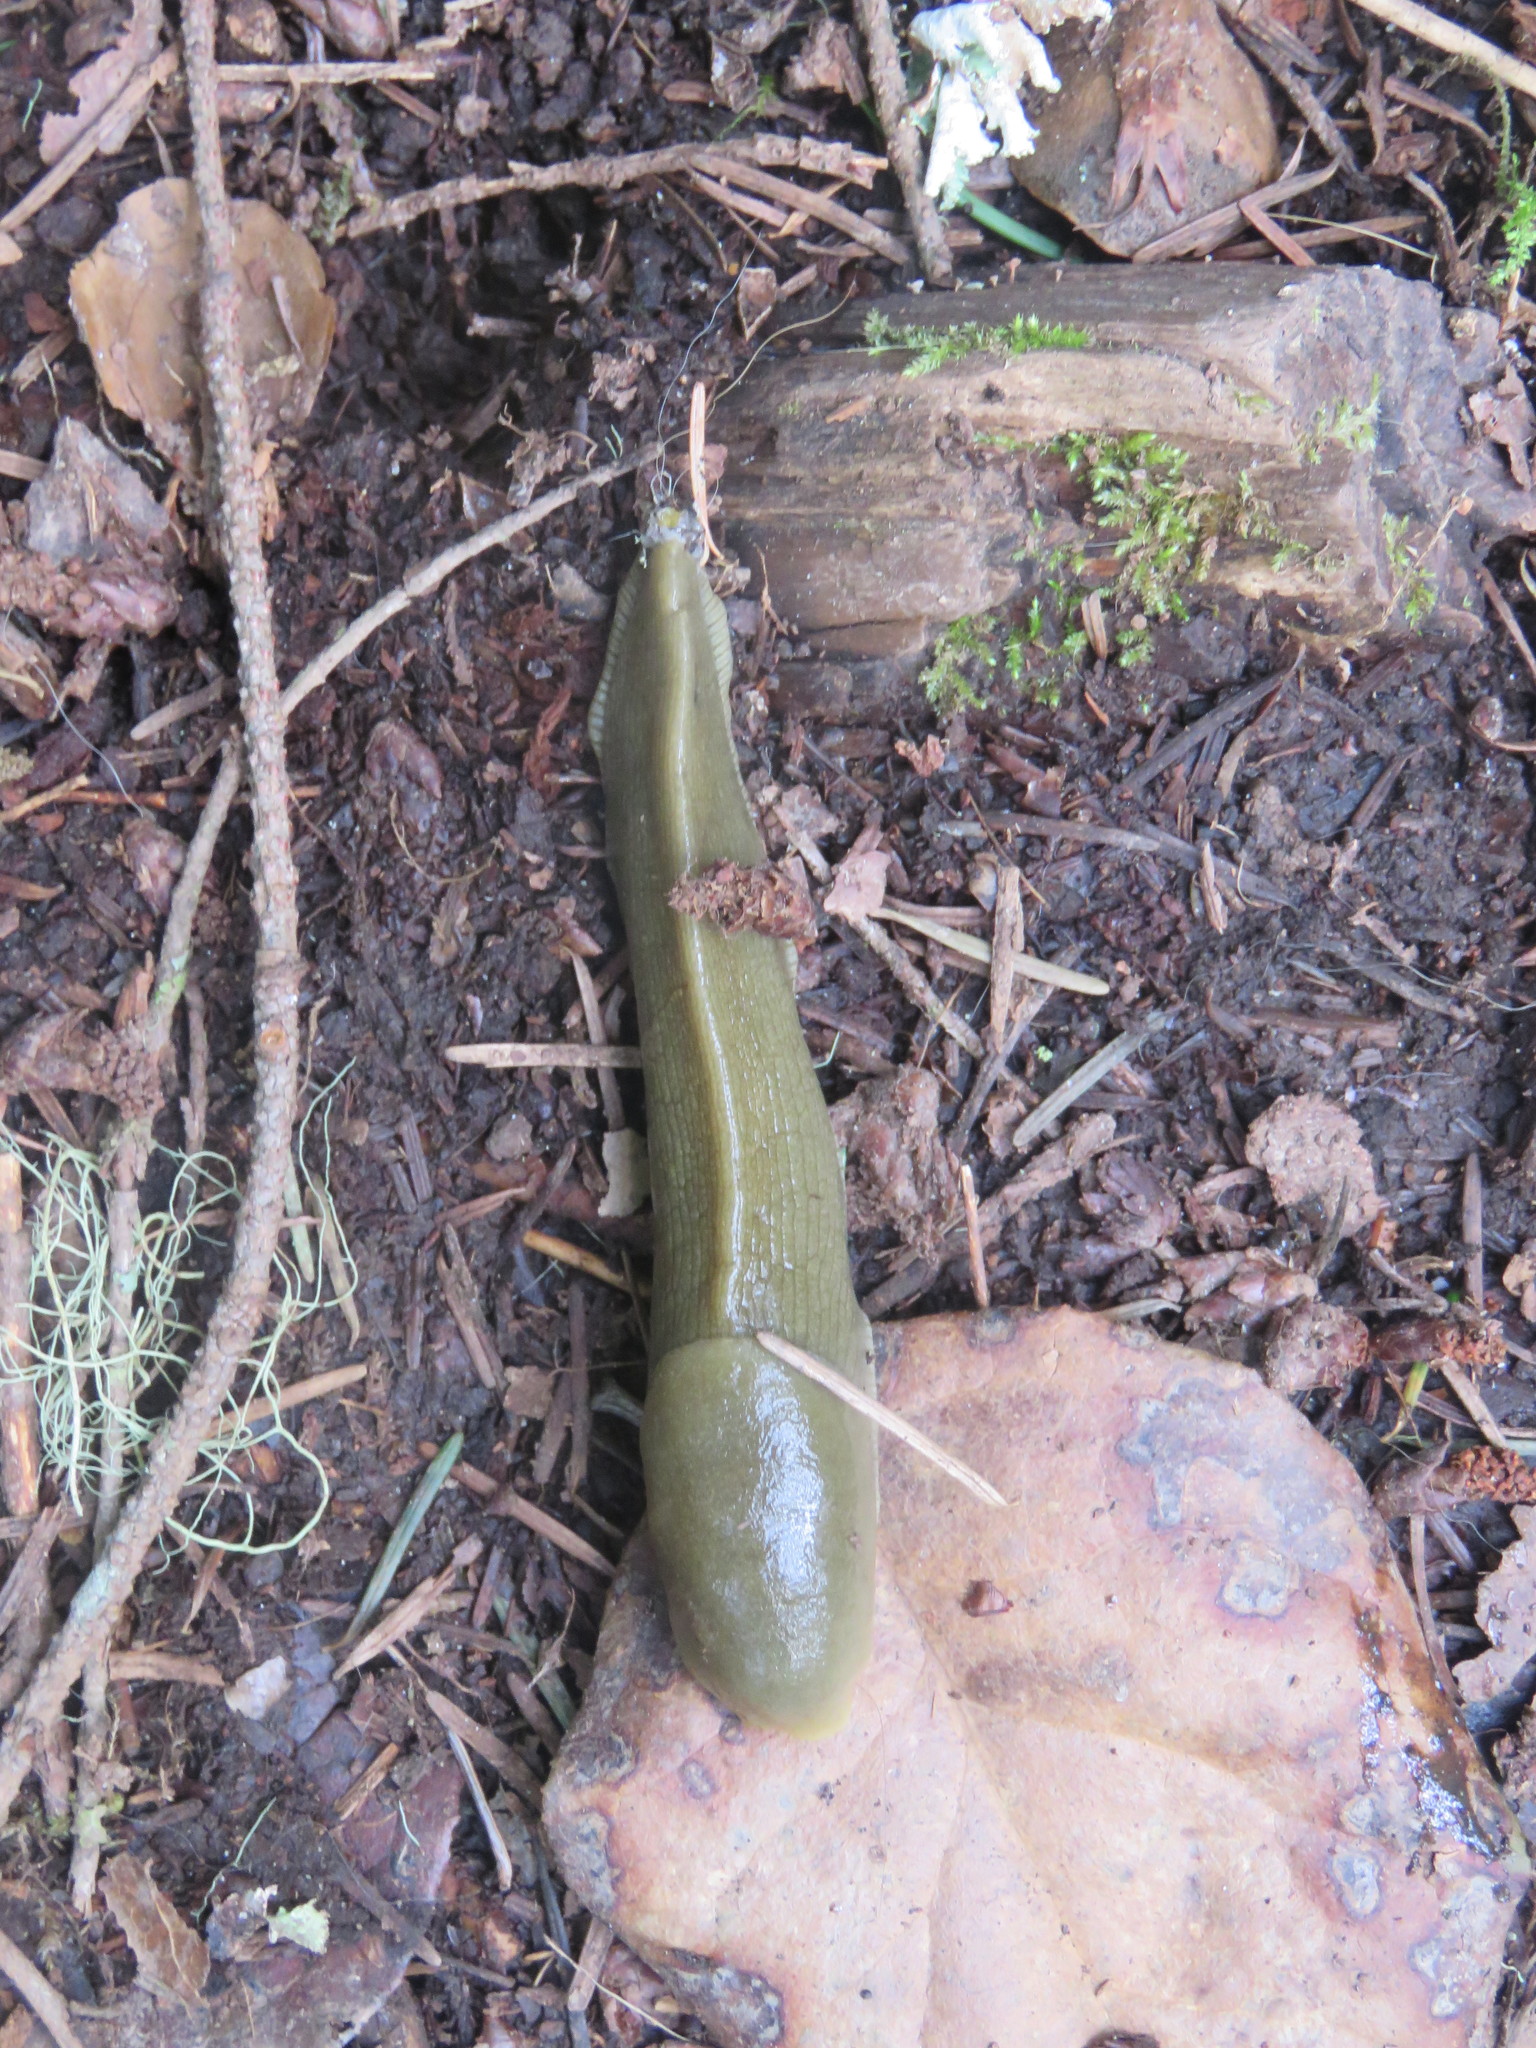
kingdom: Animalia
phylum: Mollusca
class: Gastropoda
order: Stylommatophora
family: Ariolimacidae
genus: Ariolimax
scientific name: Ariolimax columbianus
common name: Pacific banana slug
